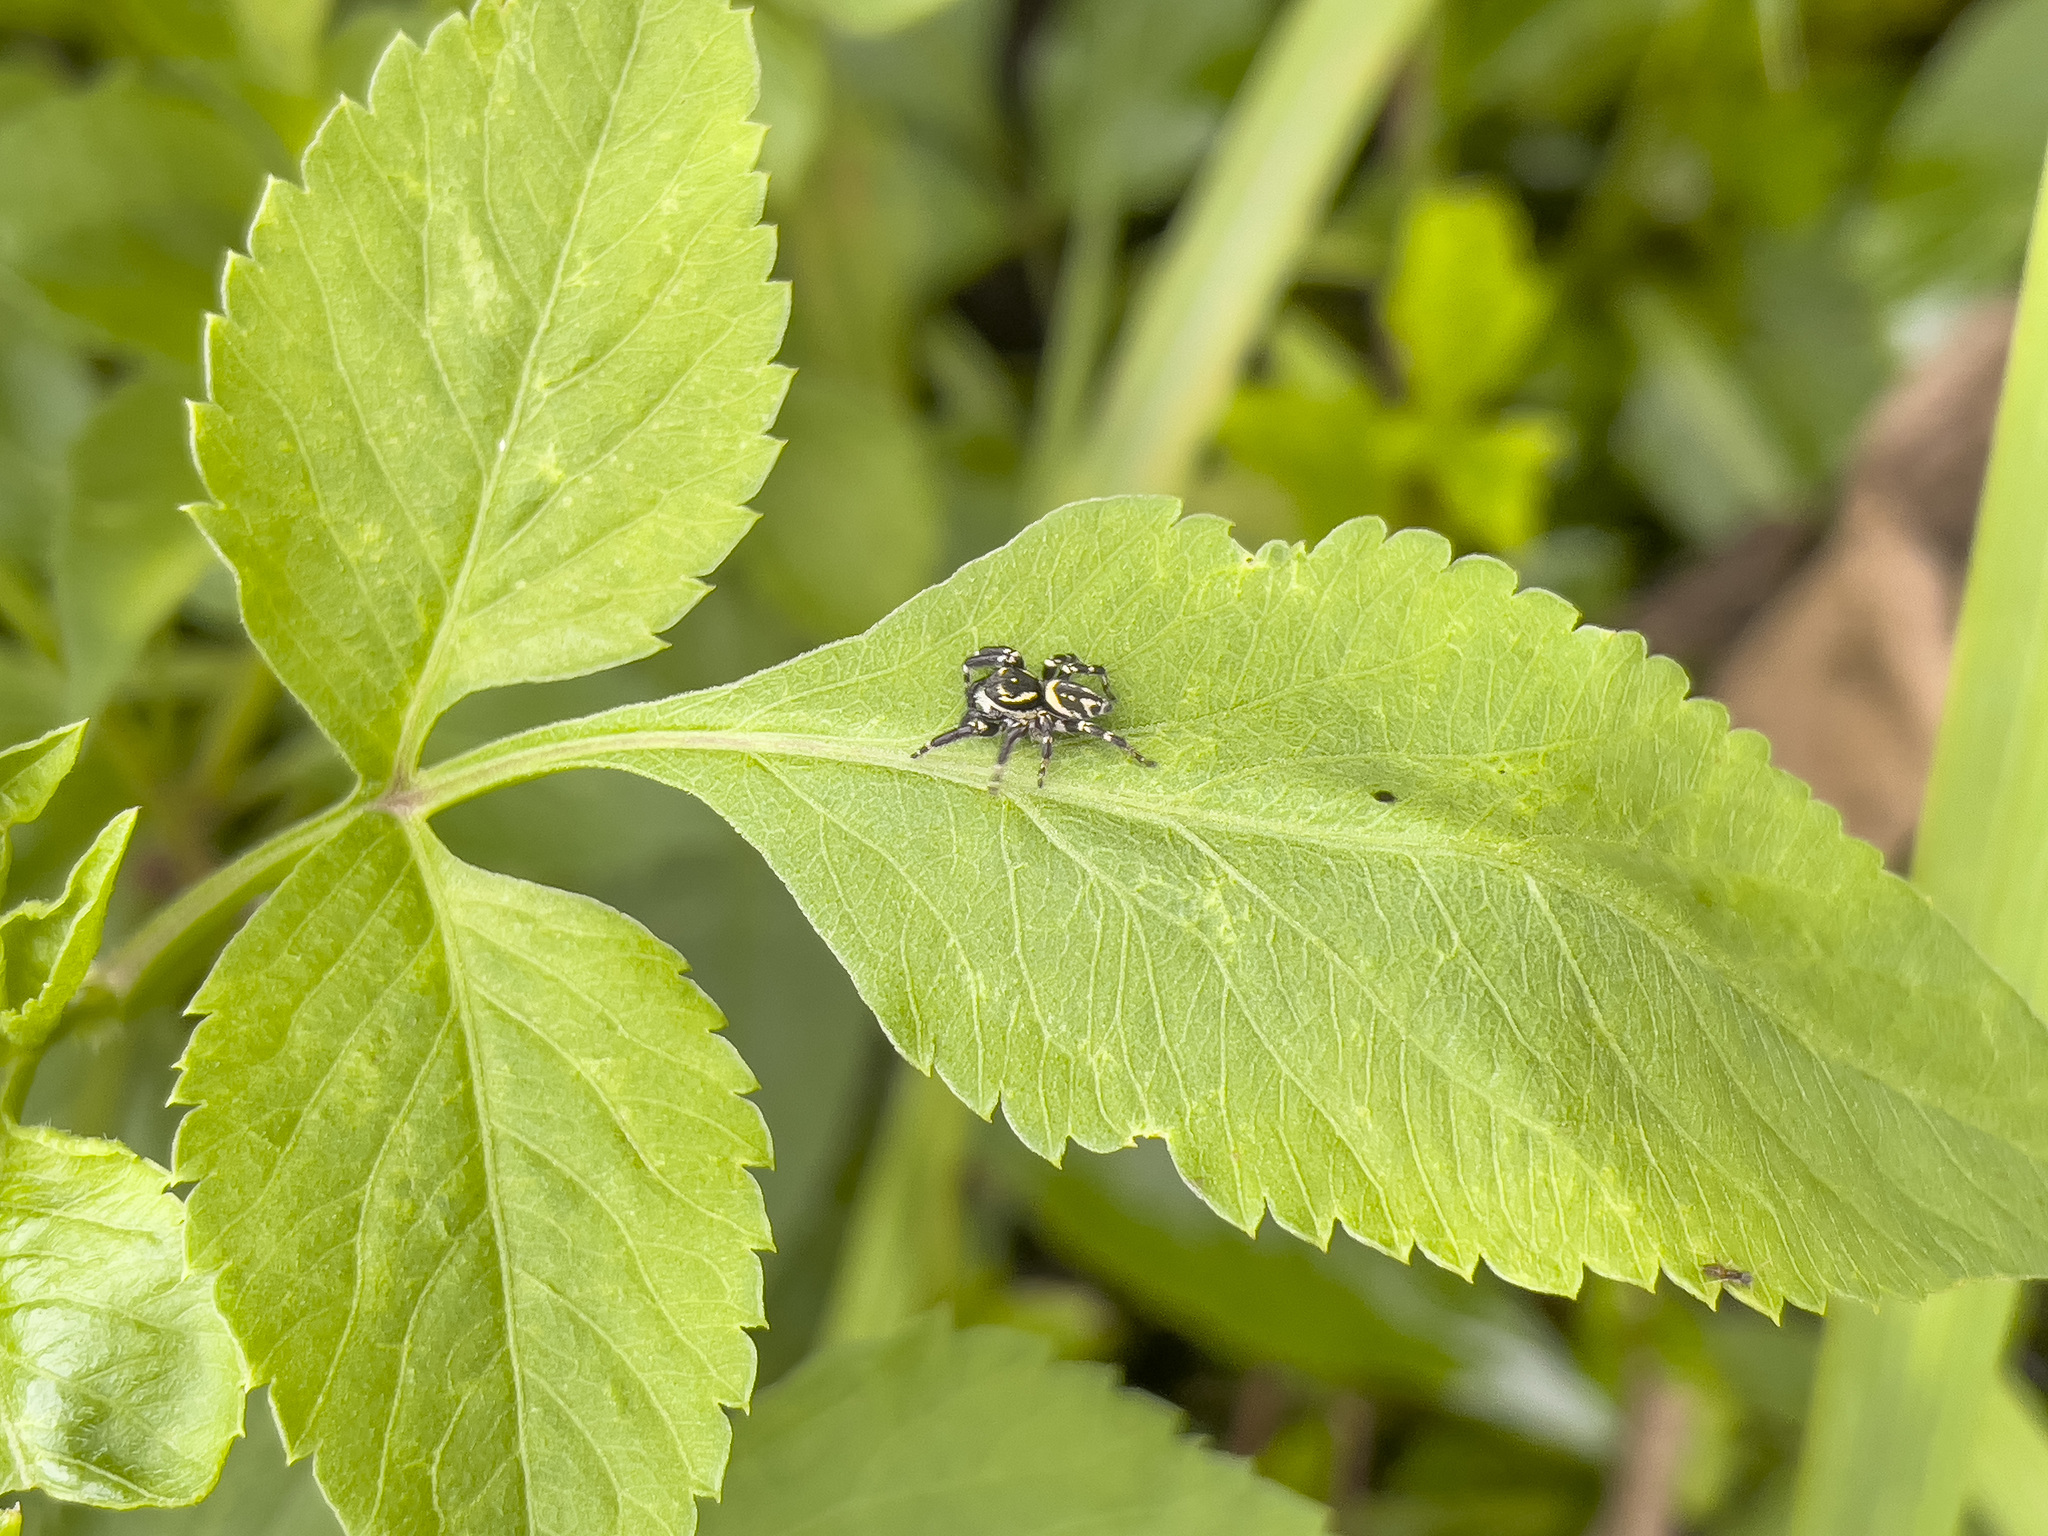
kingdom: Animalia
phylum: Arthropoda
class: Arachnida
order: Araneae
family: Salticidae
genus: Carrhotus
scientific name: Carrhotus sannio
